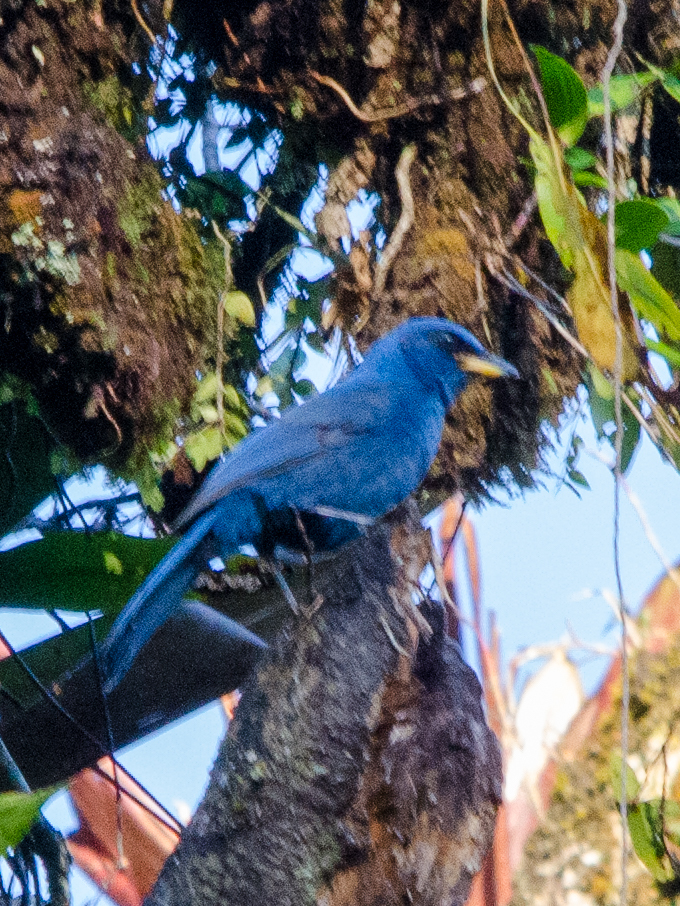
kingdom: Animalia
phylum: Chordata
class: Aves
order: Passeriformes
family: Corvidae
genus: Aphelocoma
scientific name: Aphelocoma unicolor
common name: Unicolored jay
